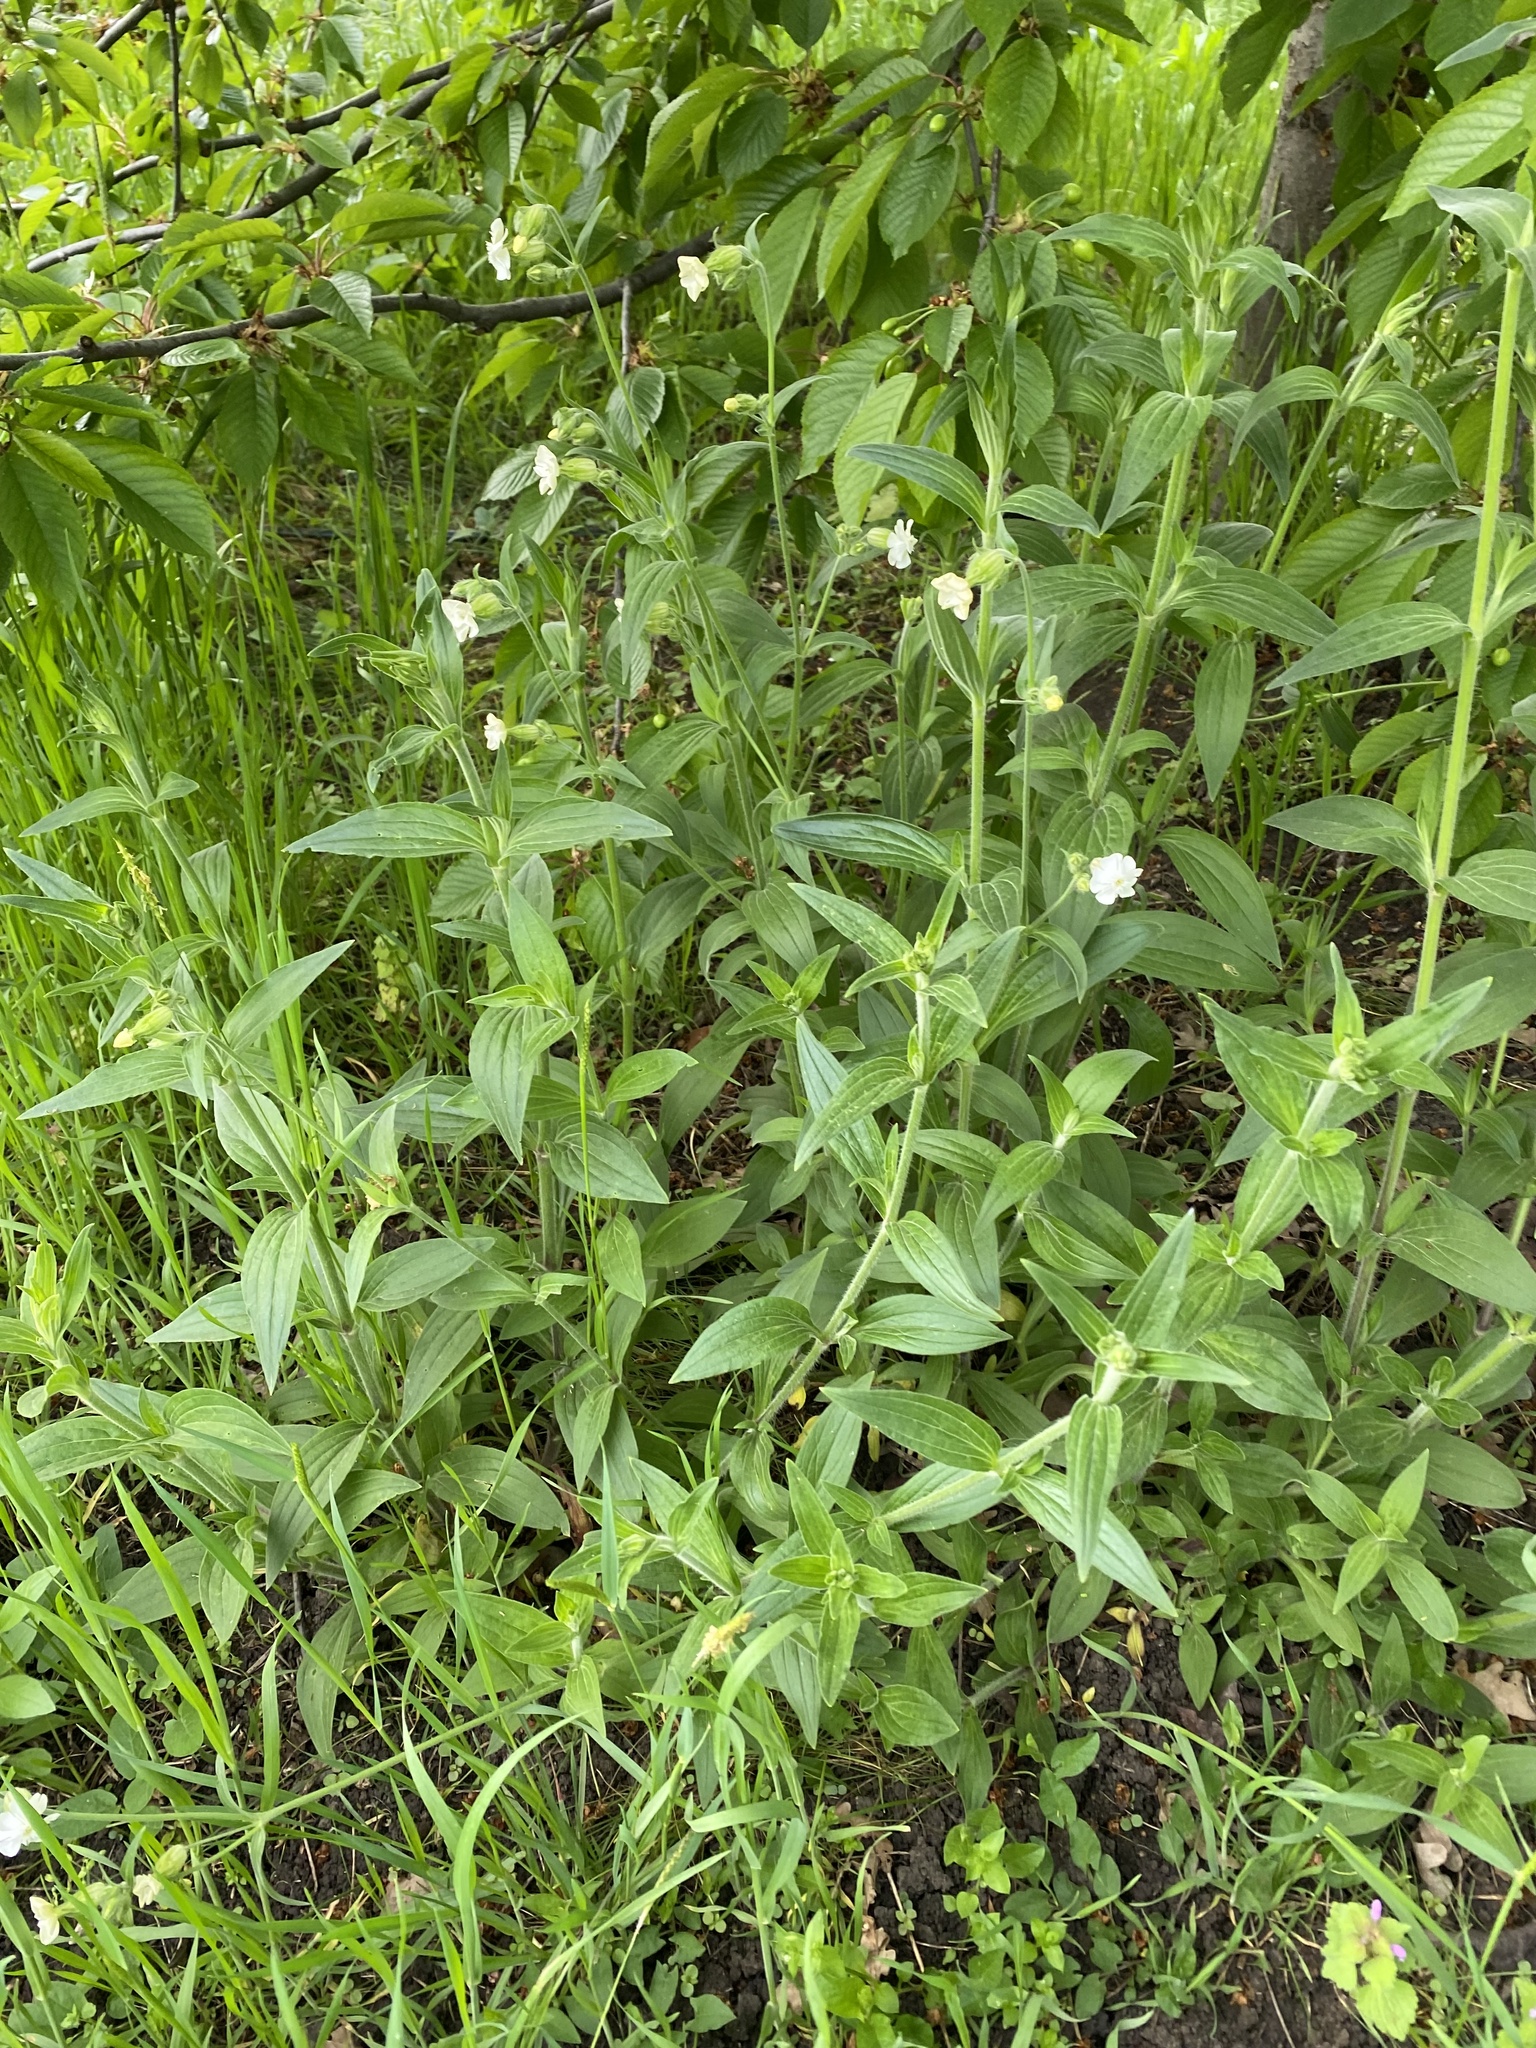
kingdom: Plantae
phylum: Tracheophyta
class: Magnoliopsida
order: Caryophyllales
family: Caryophyllaceae
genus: Silene
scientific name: Silene latifolia
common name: White campion
